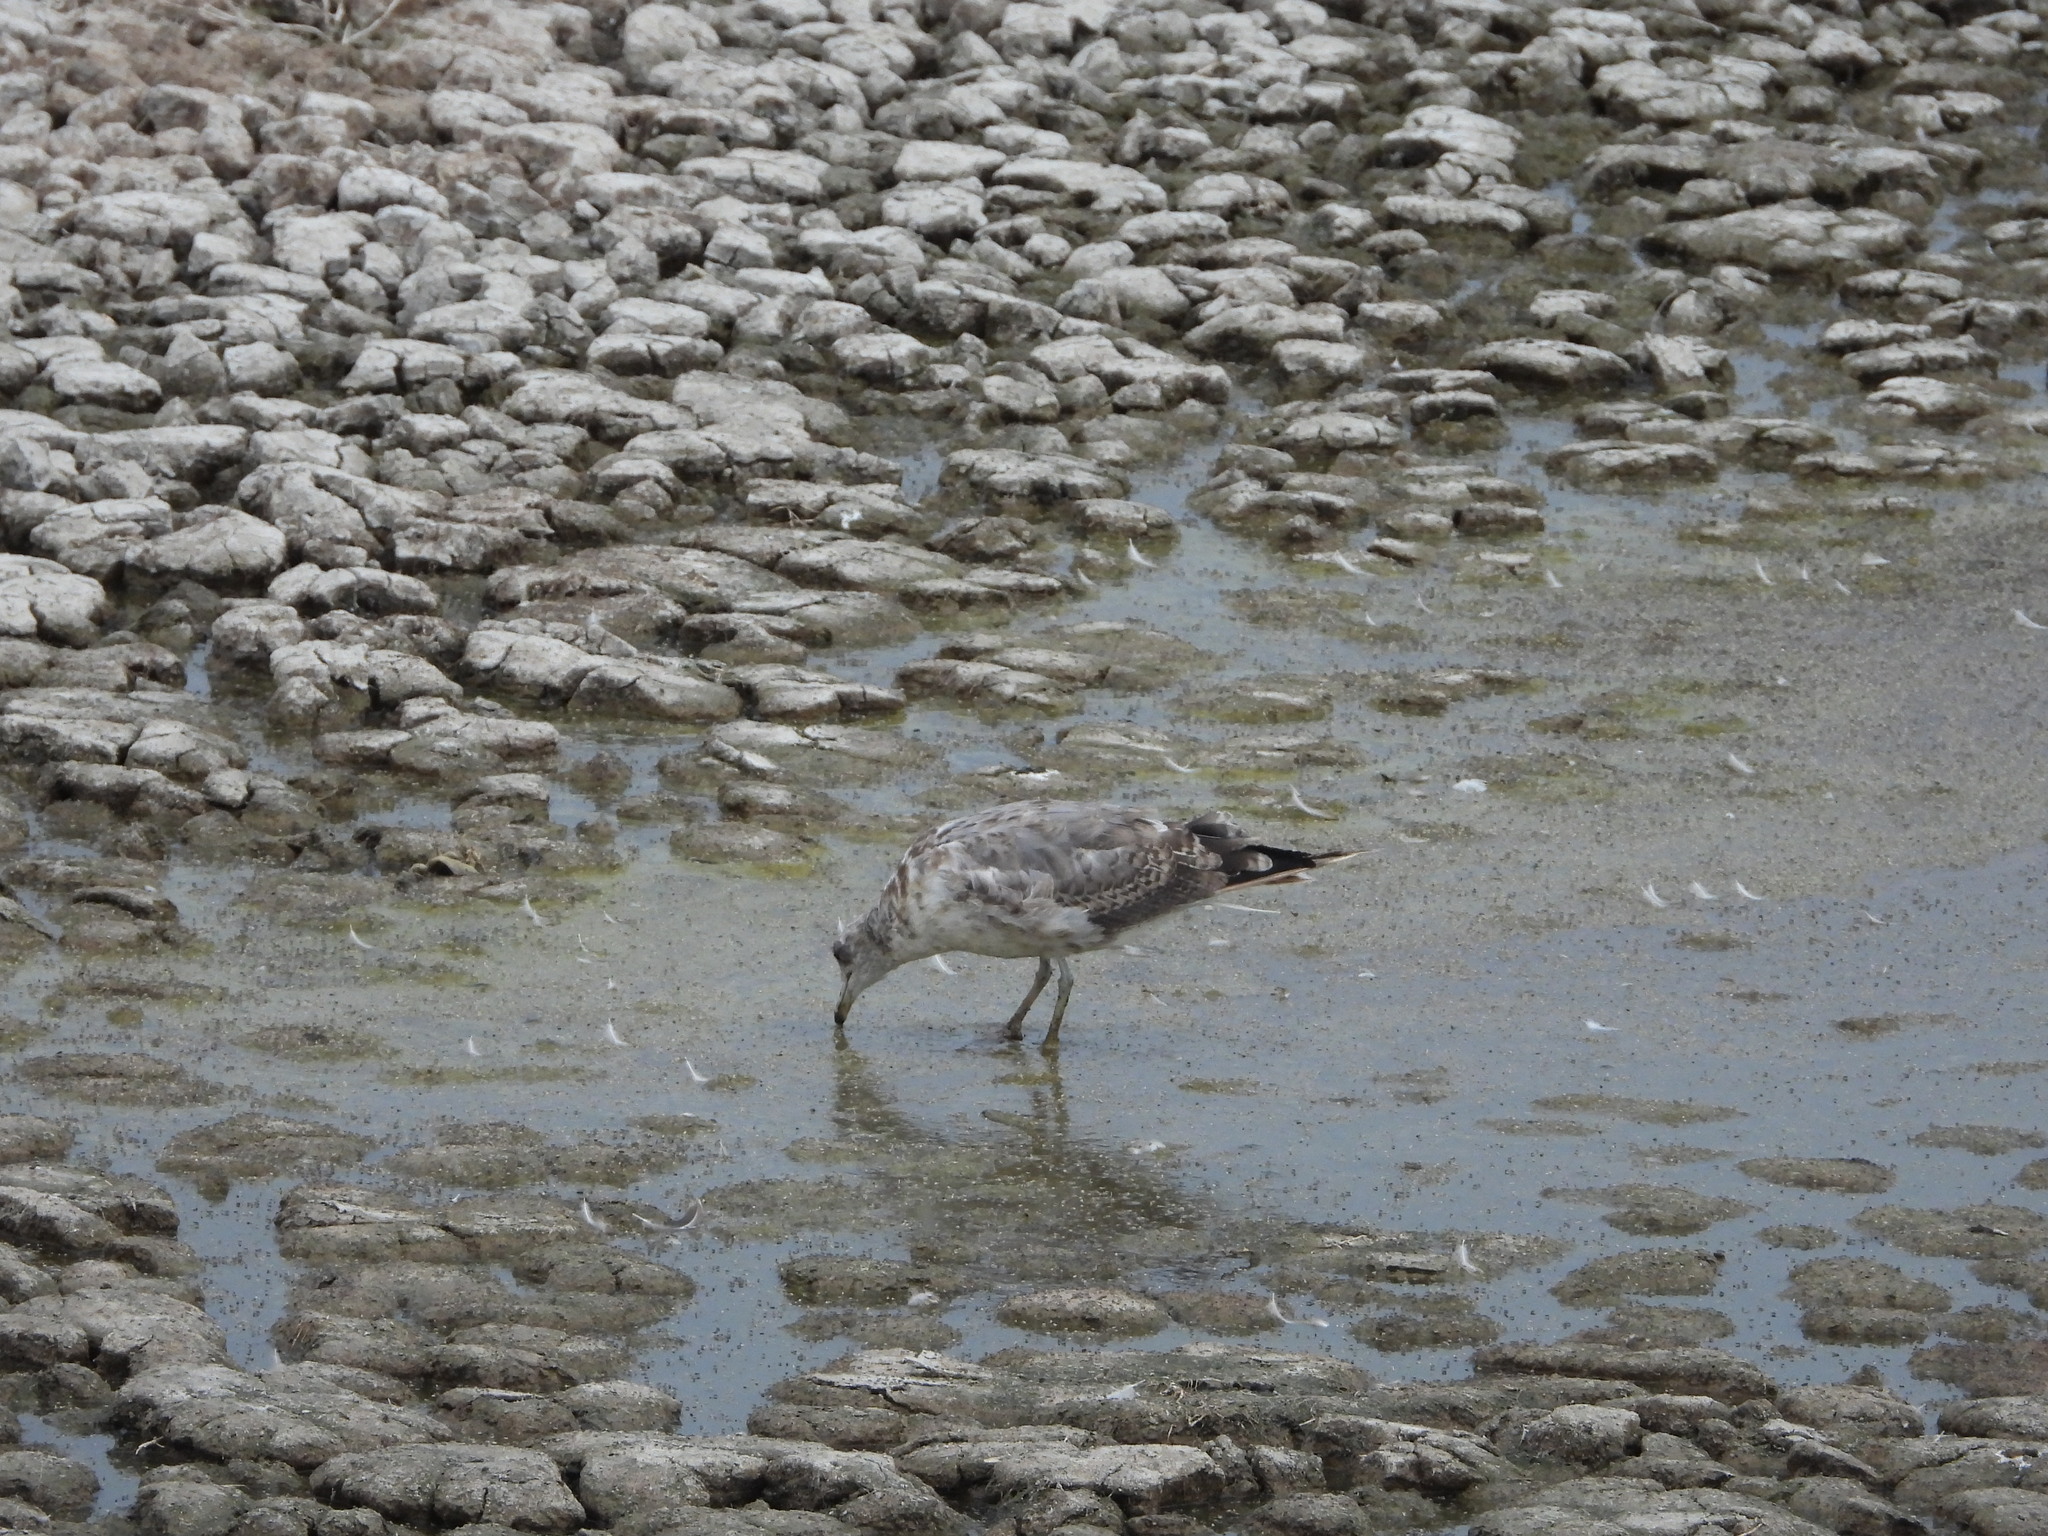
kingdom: Animalia
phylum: Chordata
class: Aves
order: Charadriiformes
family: Laridae
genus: Larus
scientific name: Larus californicus
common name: California gull
